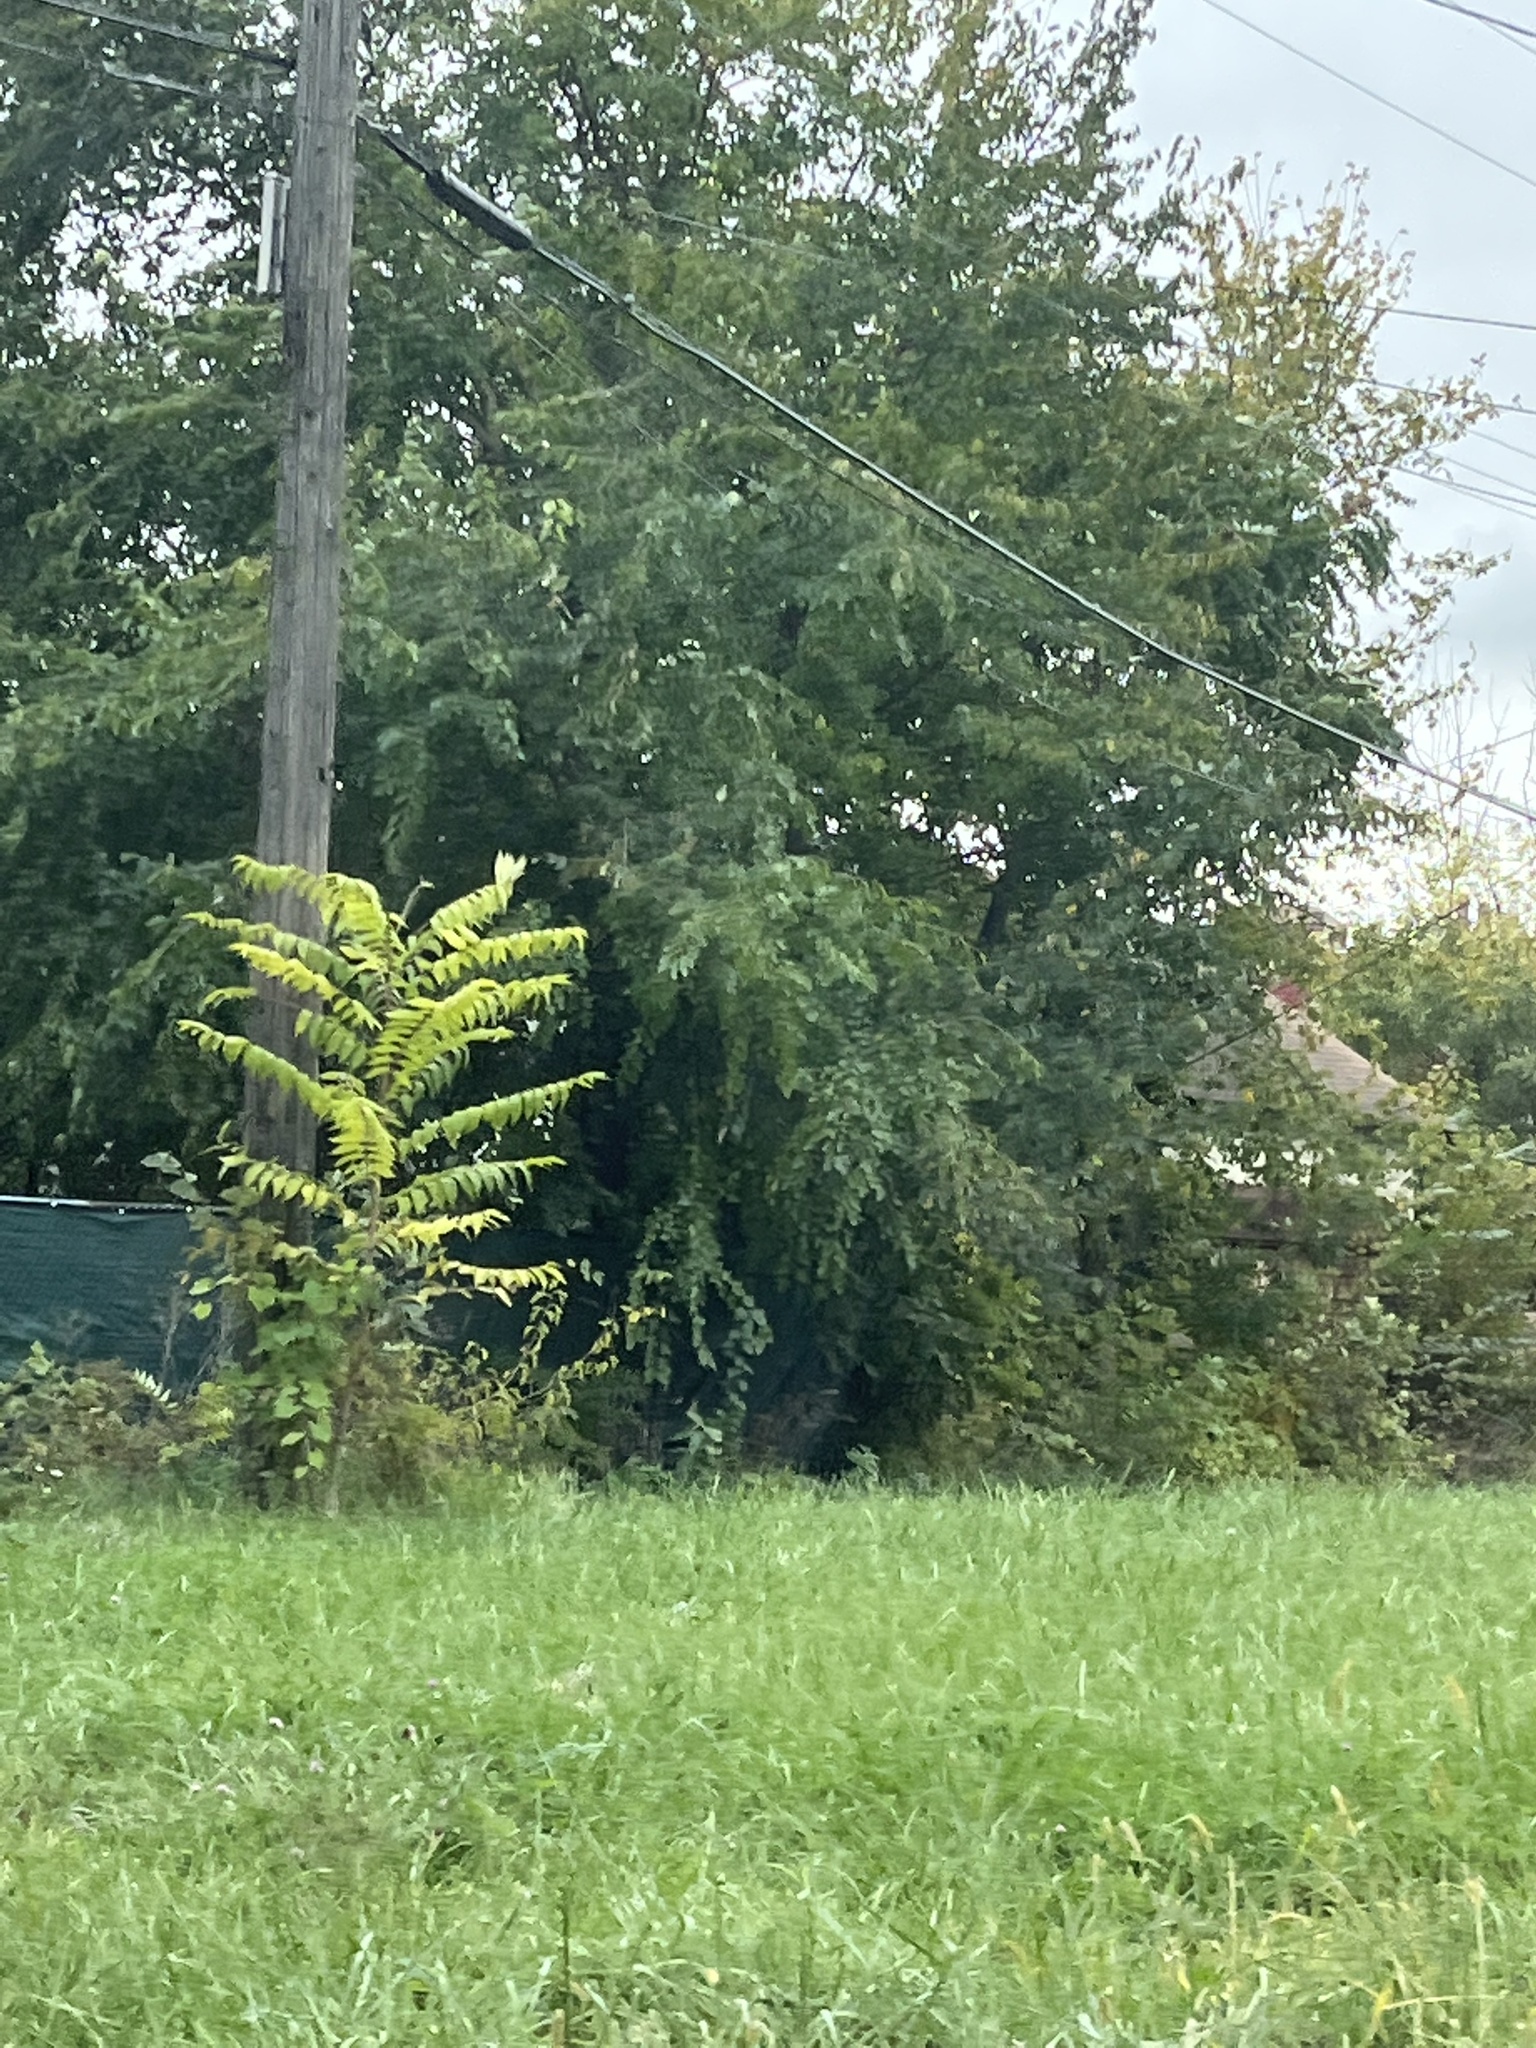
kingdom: Plantae
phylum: Tracheophyta
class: Magnoliopsida
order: Sapindales
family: Simaroubaceae
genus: Ailanthus
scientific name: Ailanthus altissima
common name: Tree-of-heaven
